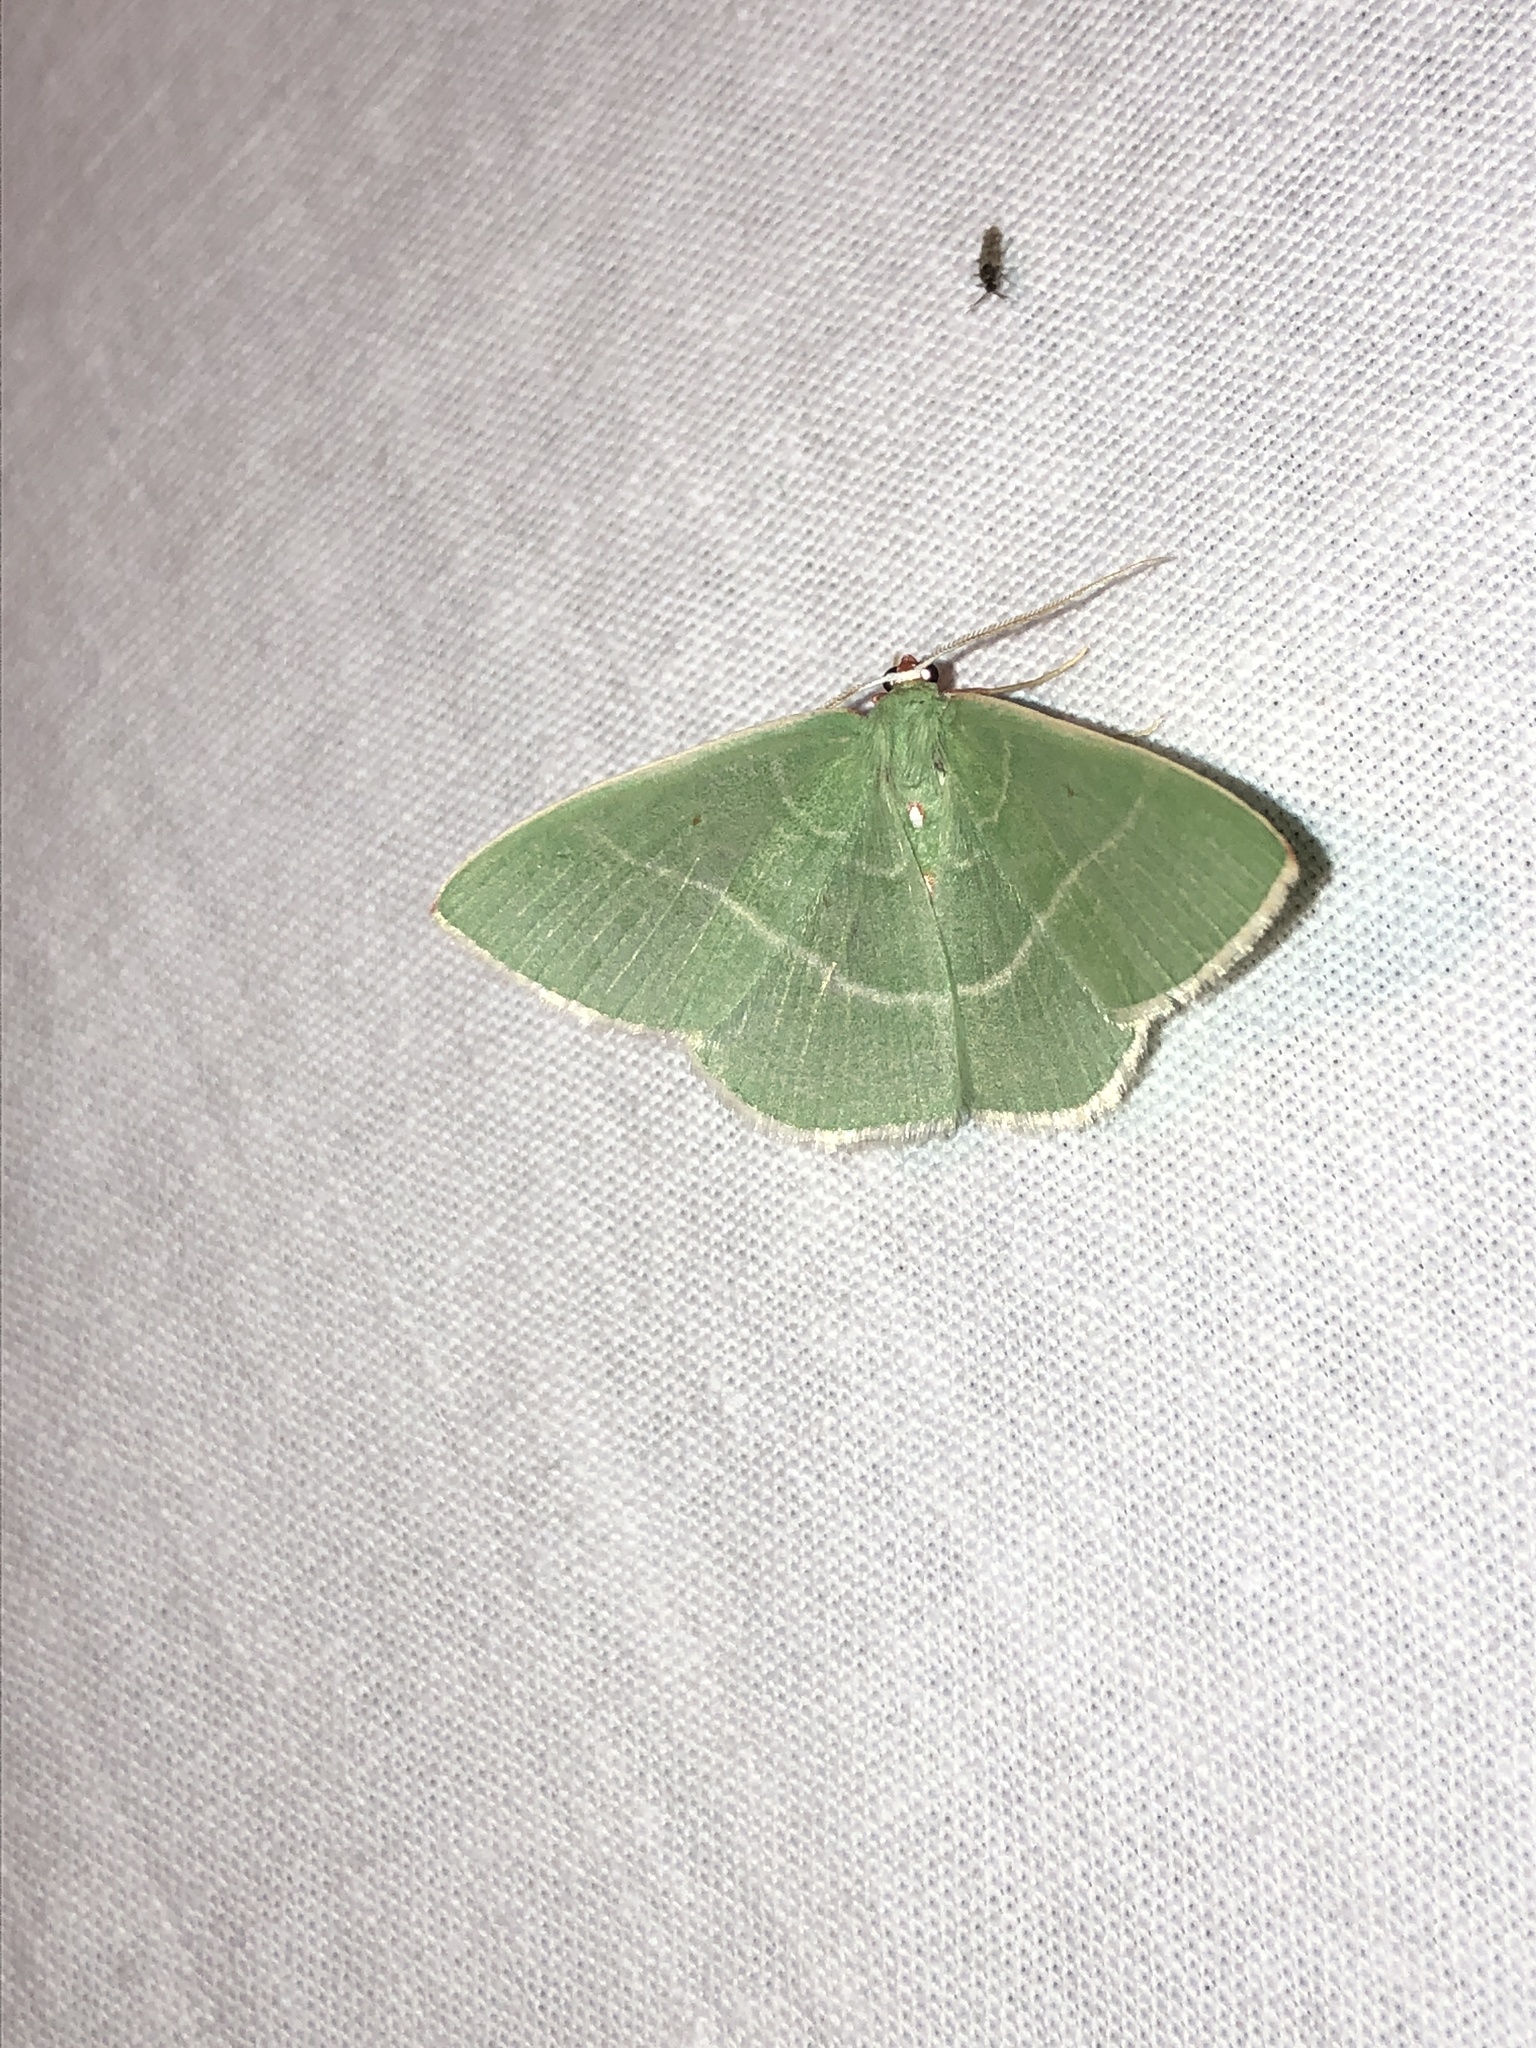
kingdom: Animalia
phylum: Arthropoda
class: Insecta
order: Lepidoptera
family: Geometridae
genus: Nemoria
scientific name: Nemoria darwiniata
